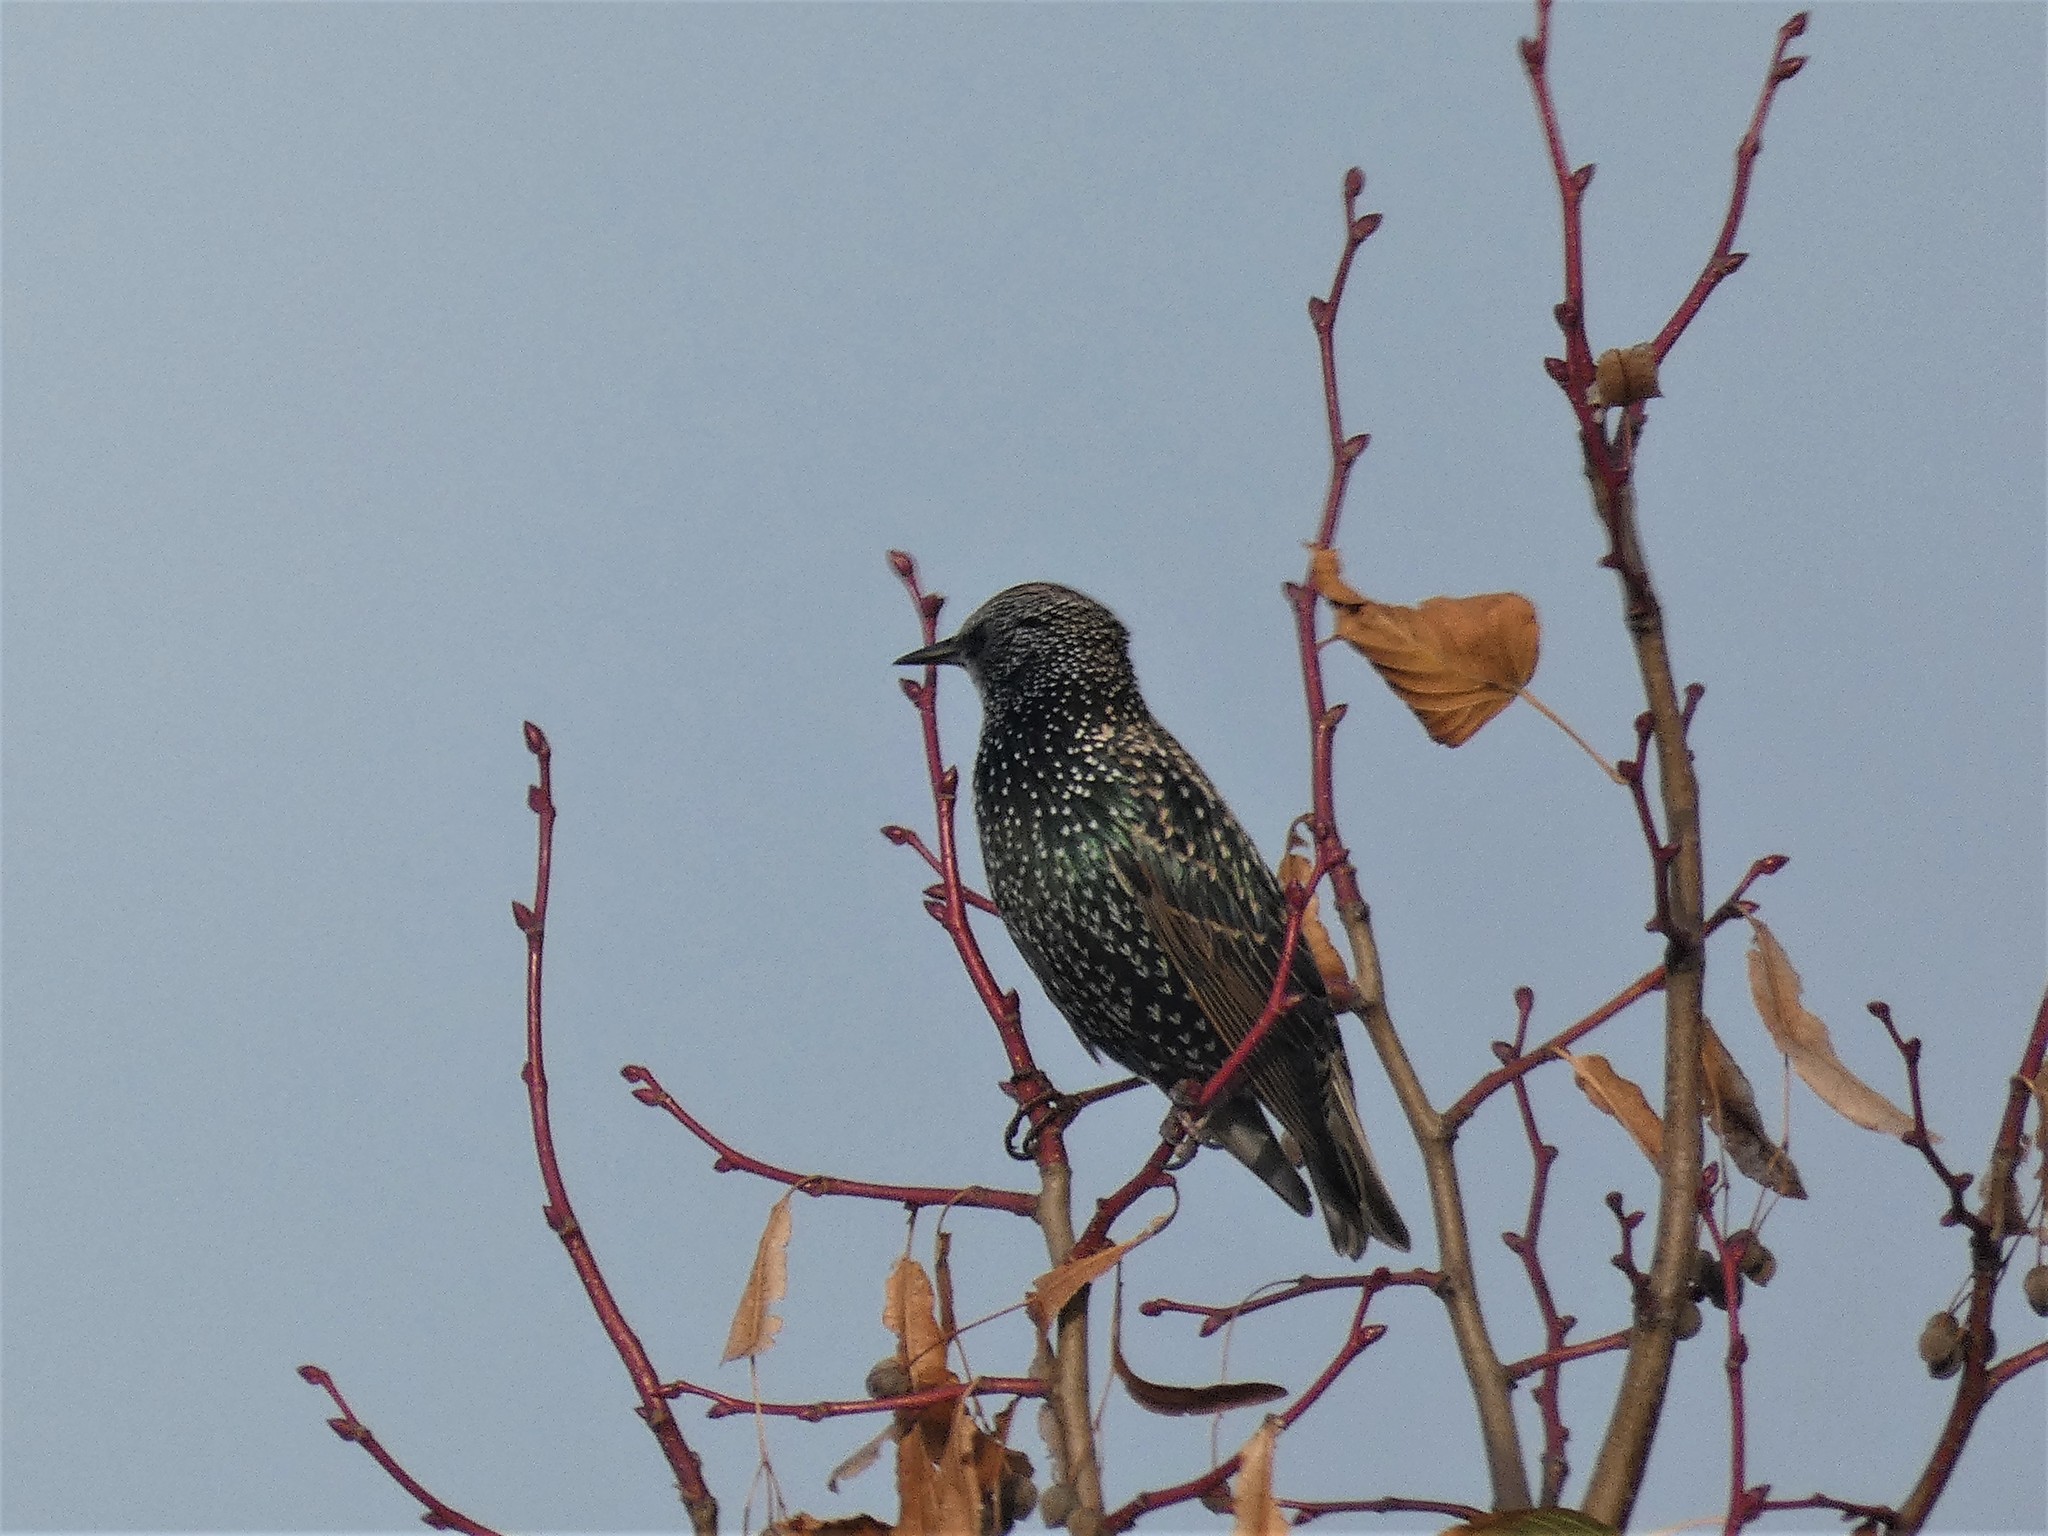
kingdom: Animalia
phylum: Chordata
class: Aves
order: Passeriformes
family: Sturnidae
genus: Sturnus
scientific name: Sturnus vulgaris
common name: Common starling
